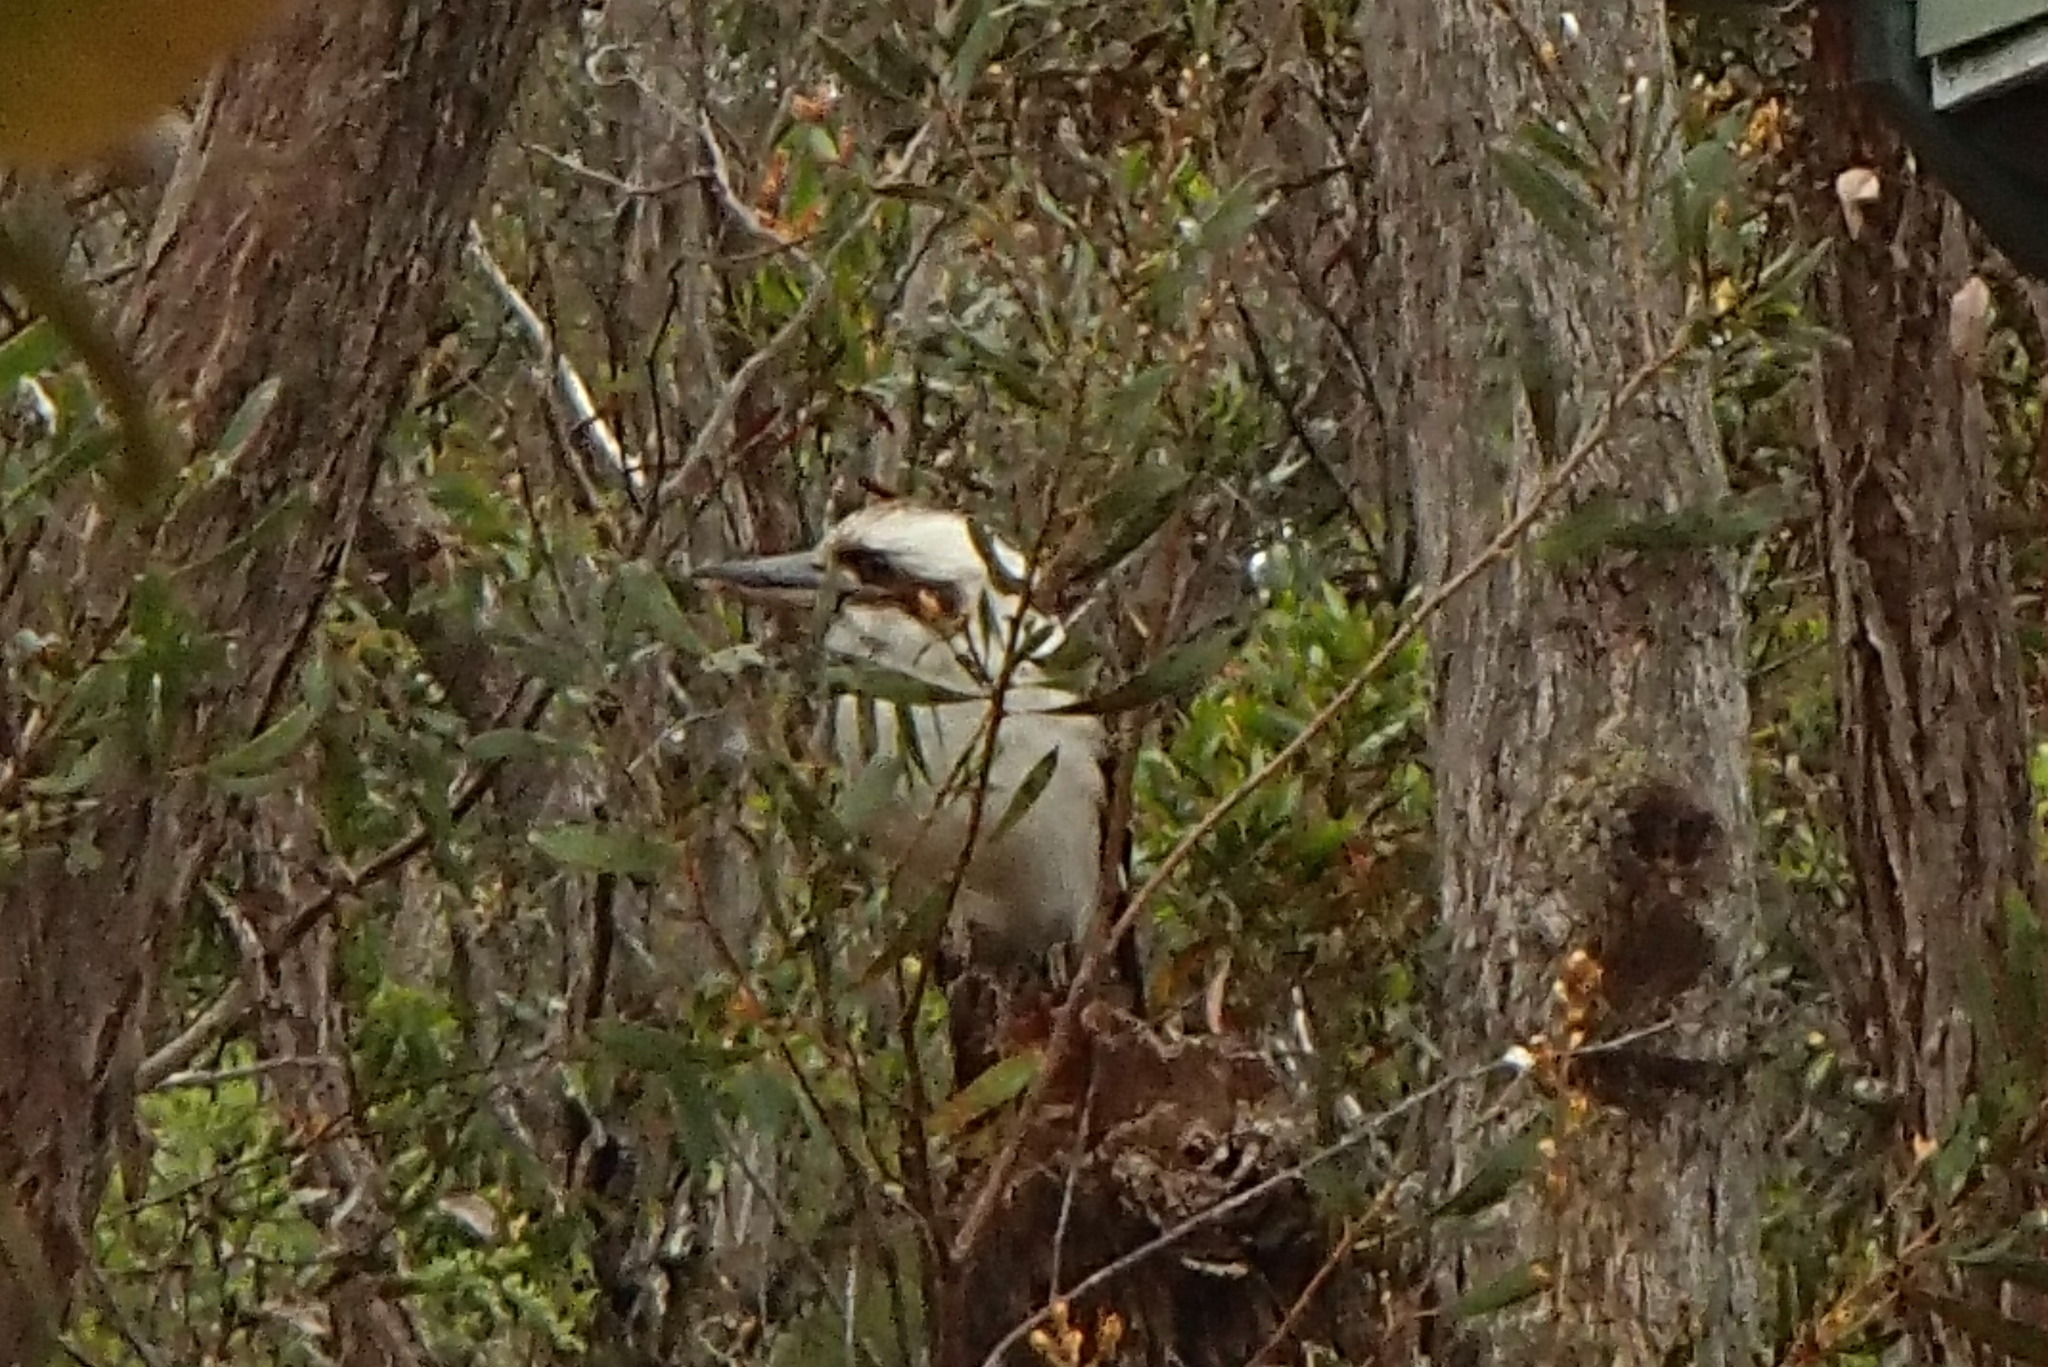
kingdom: Animalia
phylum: Chordata
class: Aves
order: Coraciiformes
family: Alcedinidae
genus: Dacelo
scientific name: Dacelo novaeguineae
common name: Laughing kookaburra
